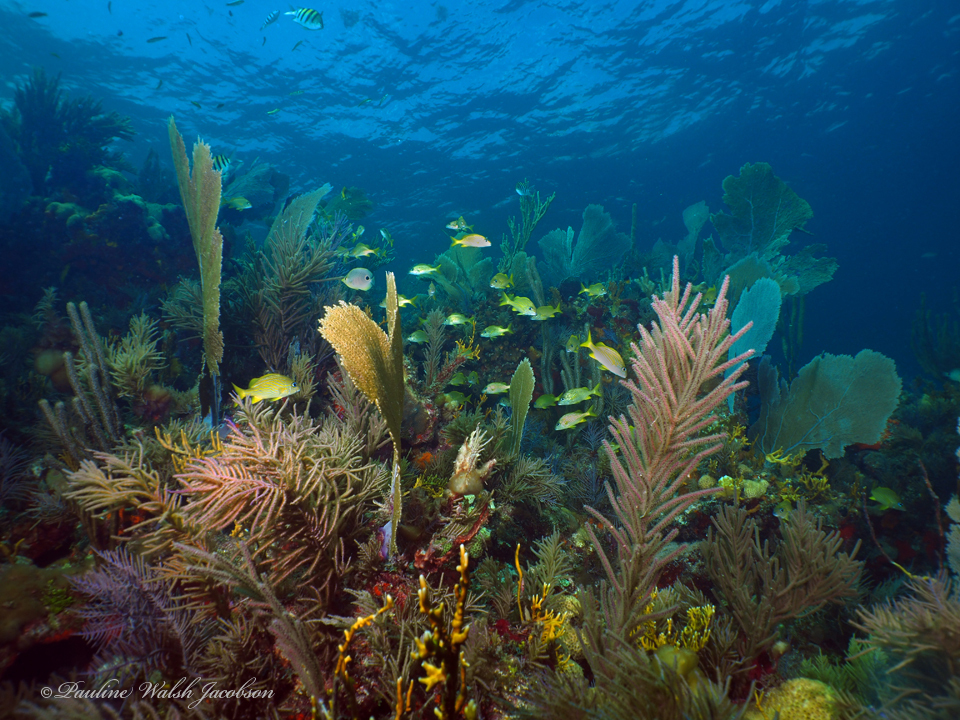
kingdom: Animalia
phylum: Chordata
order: Perciformes
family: Haemulidae
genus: Haemulon
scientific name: Haemulon flavolineatum
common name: French grunt
